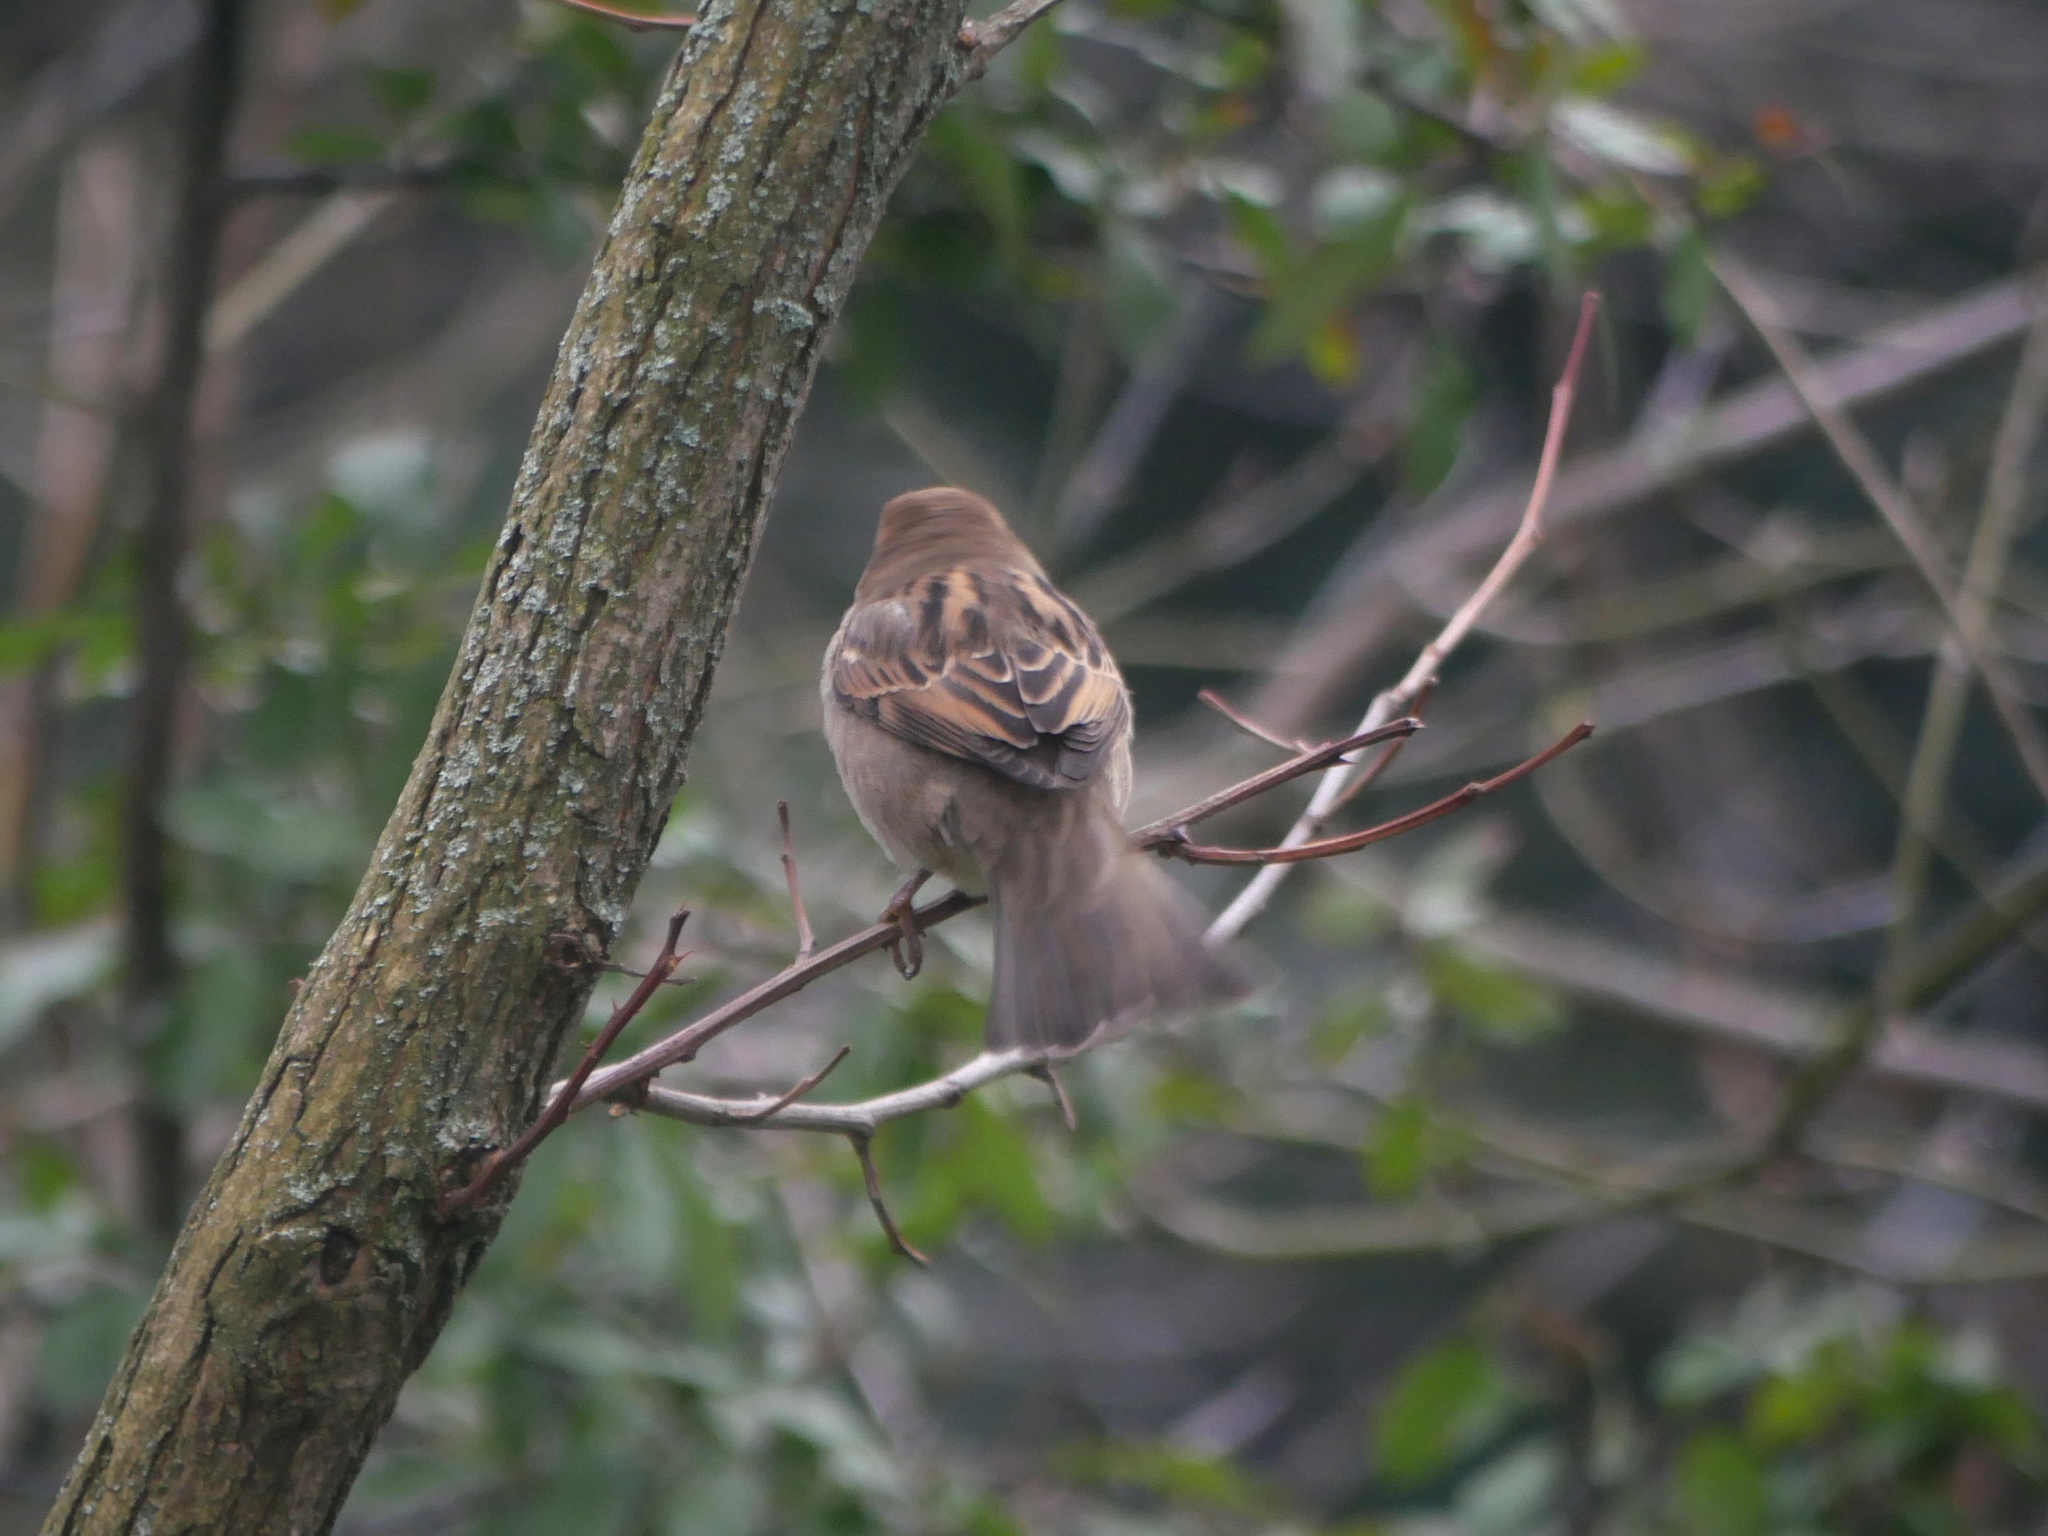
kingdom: Animalia
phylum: Chordata
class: Aves
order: Passeriformes
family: Passeridae
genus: Passer
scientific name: Passer domesticus
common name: House sparrow
